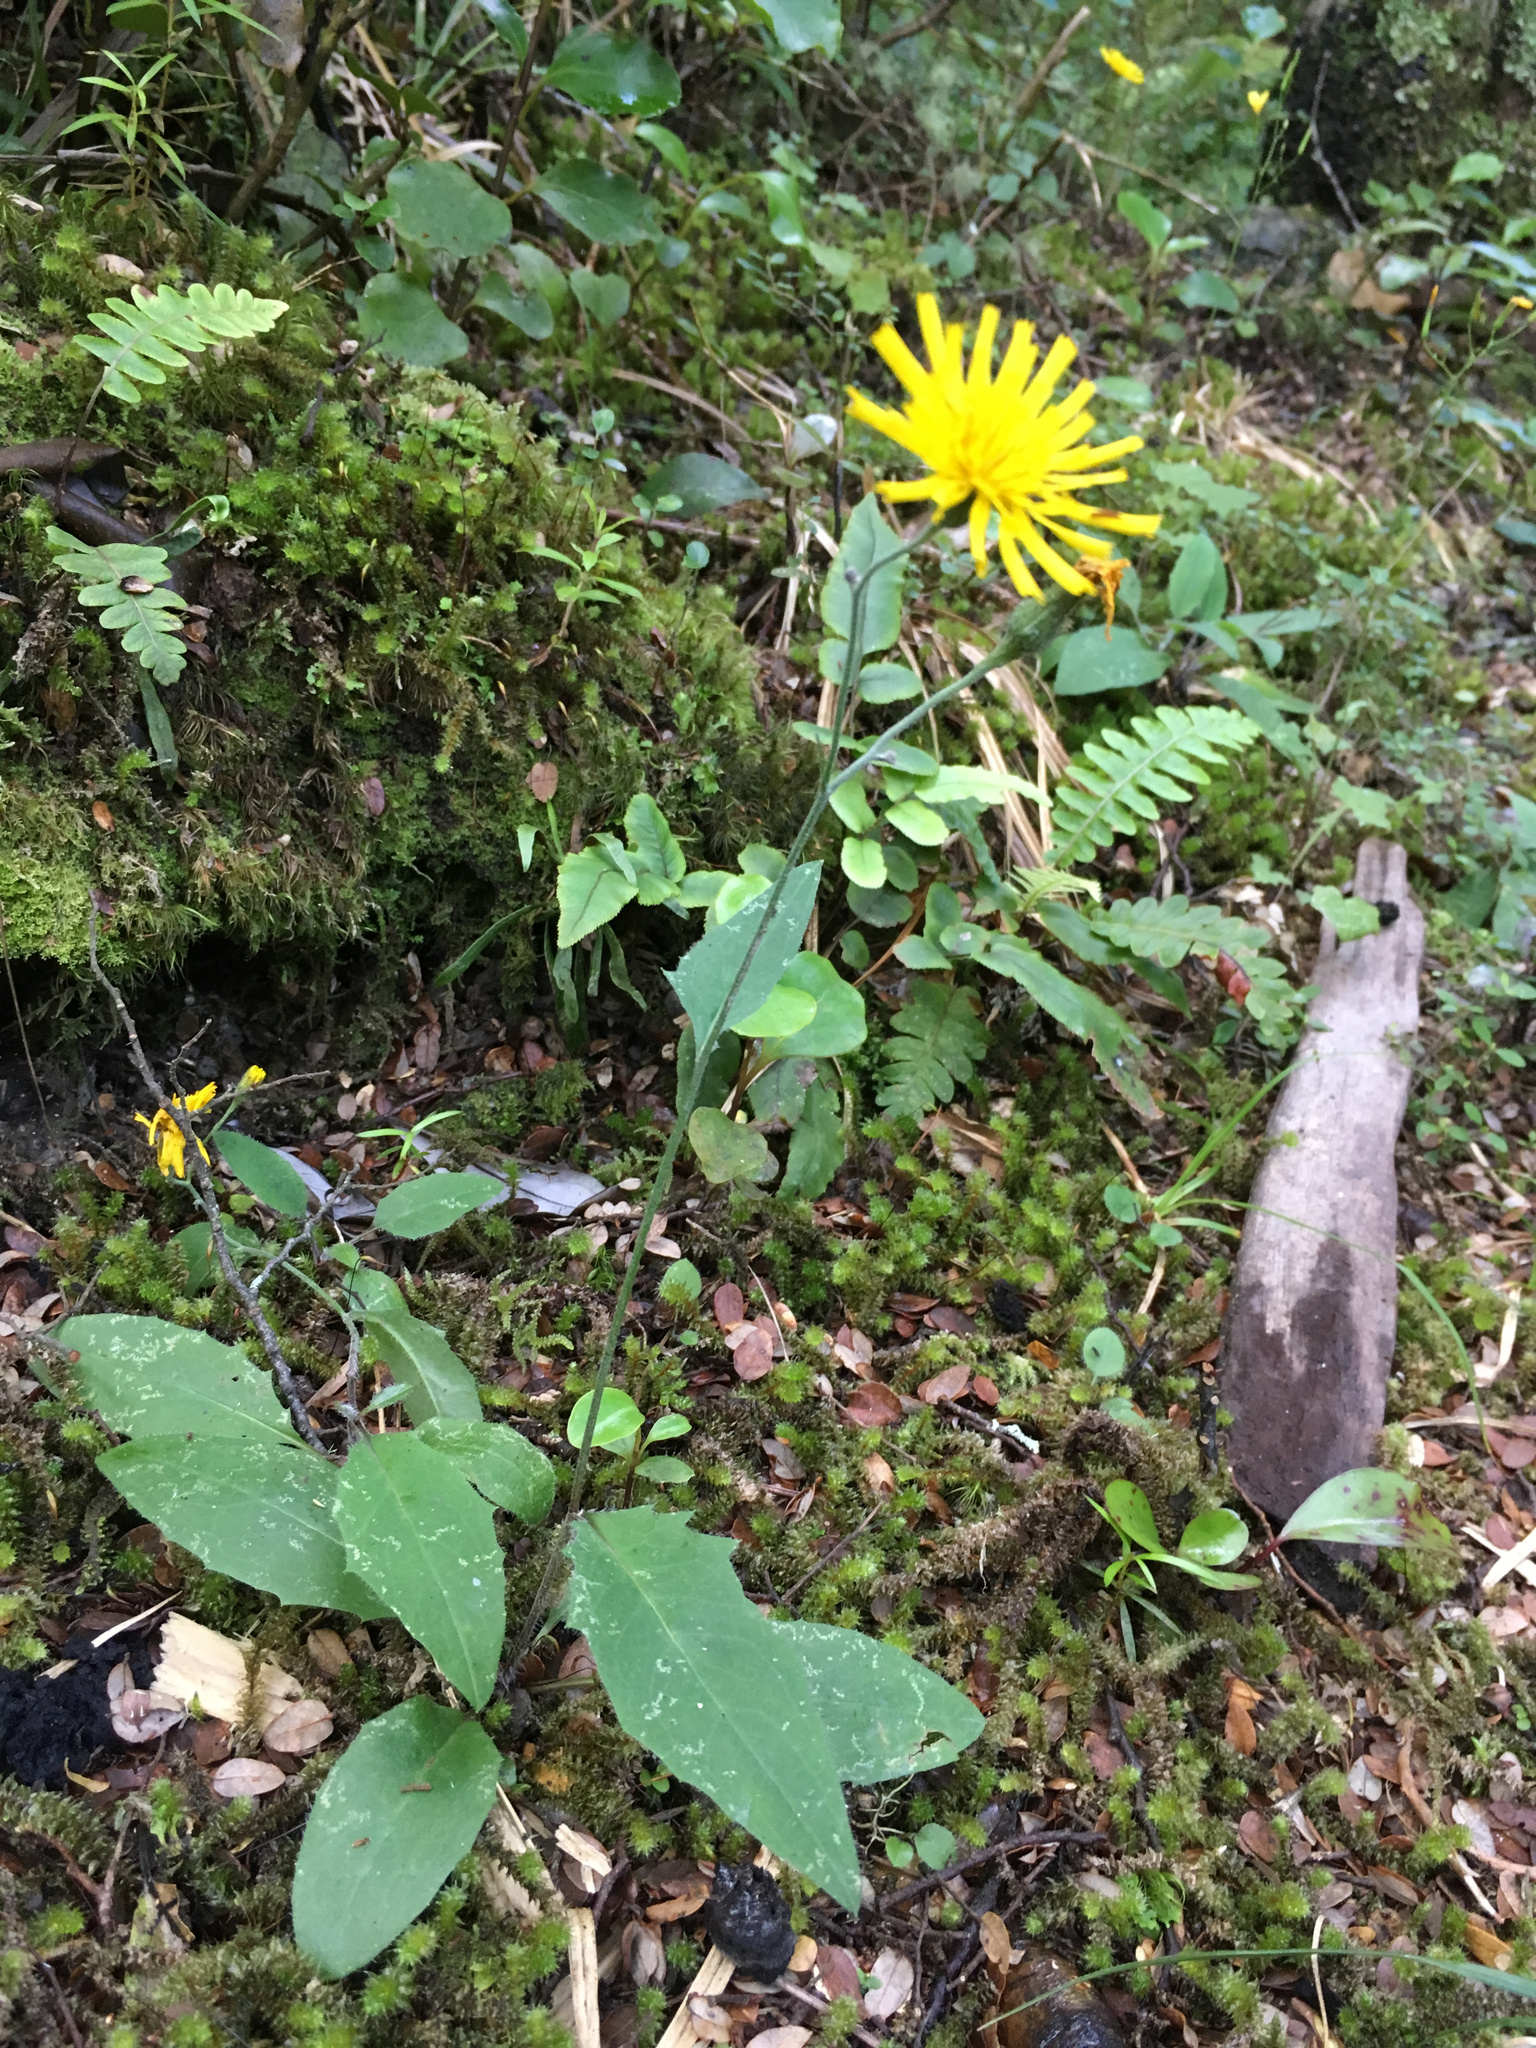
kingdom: Plantae
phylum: Tracheophyta
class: Magnoliopsida
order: Asterales
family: Asteraceae
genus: Hieracium
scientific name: Hieracium lepidulum
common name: Irregular-toothed hawkweed
